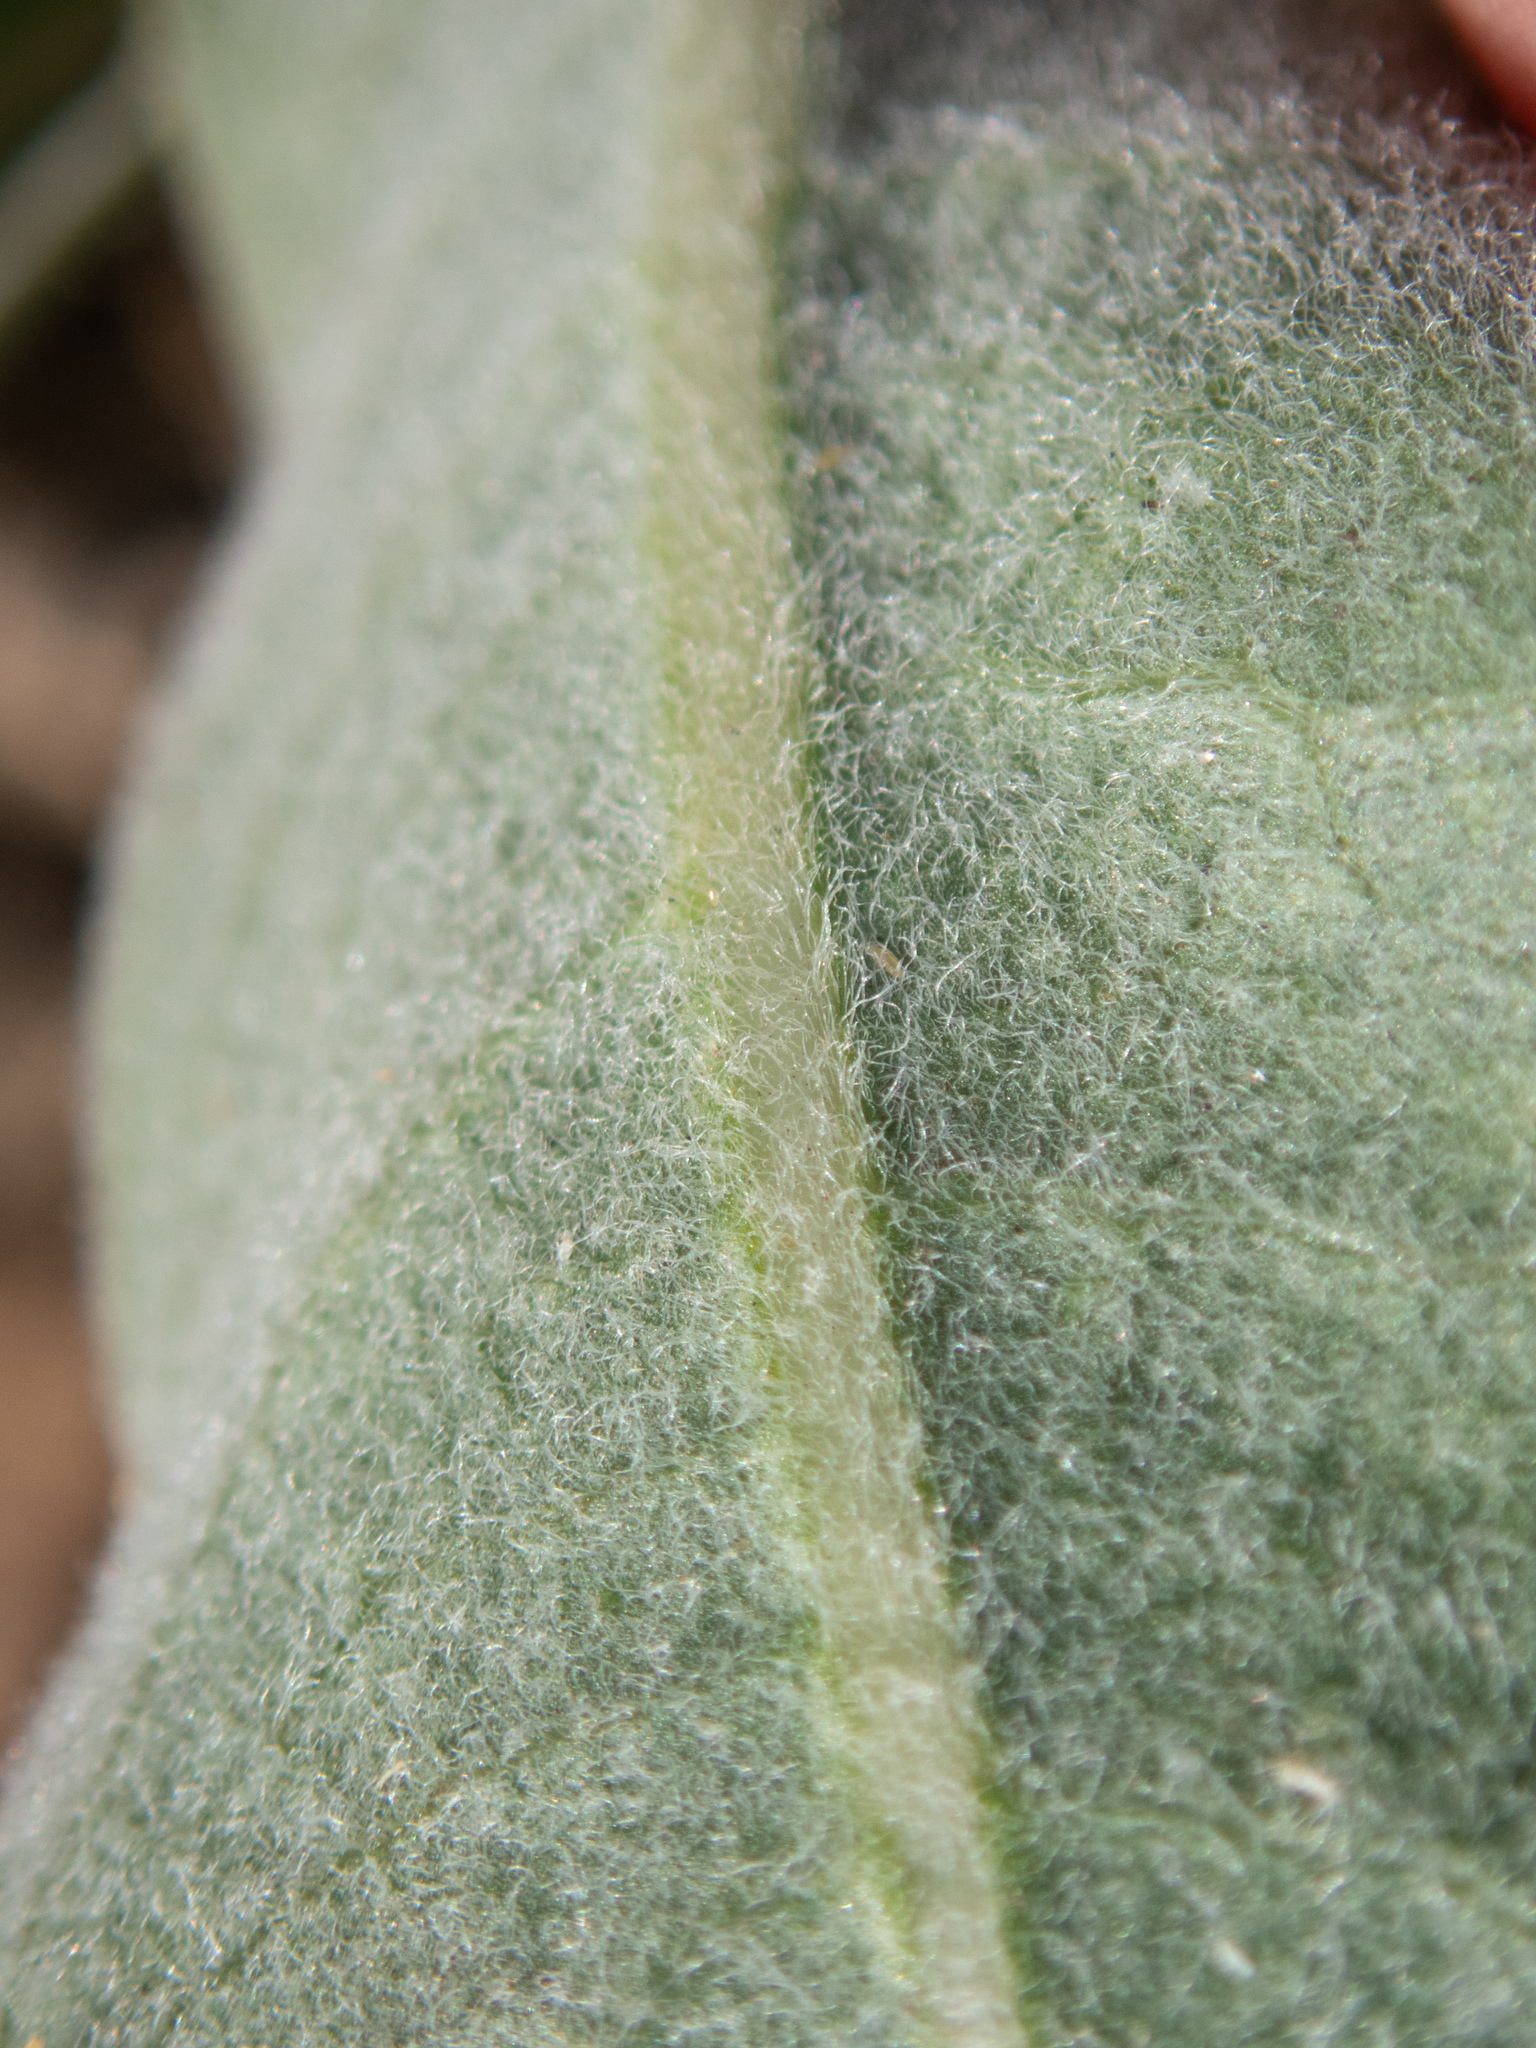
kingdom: Plantae
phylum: Tracheophyta
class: Magnoliopsida
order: Gentianales
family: Apocynaceae
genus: Asclepias
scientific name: Asclepias eriocarpa
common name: Indian milkweed
